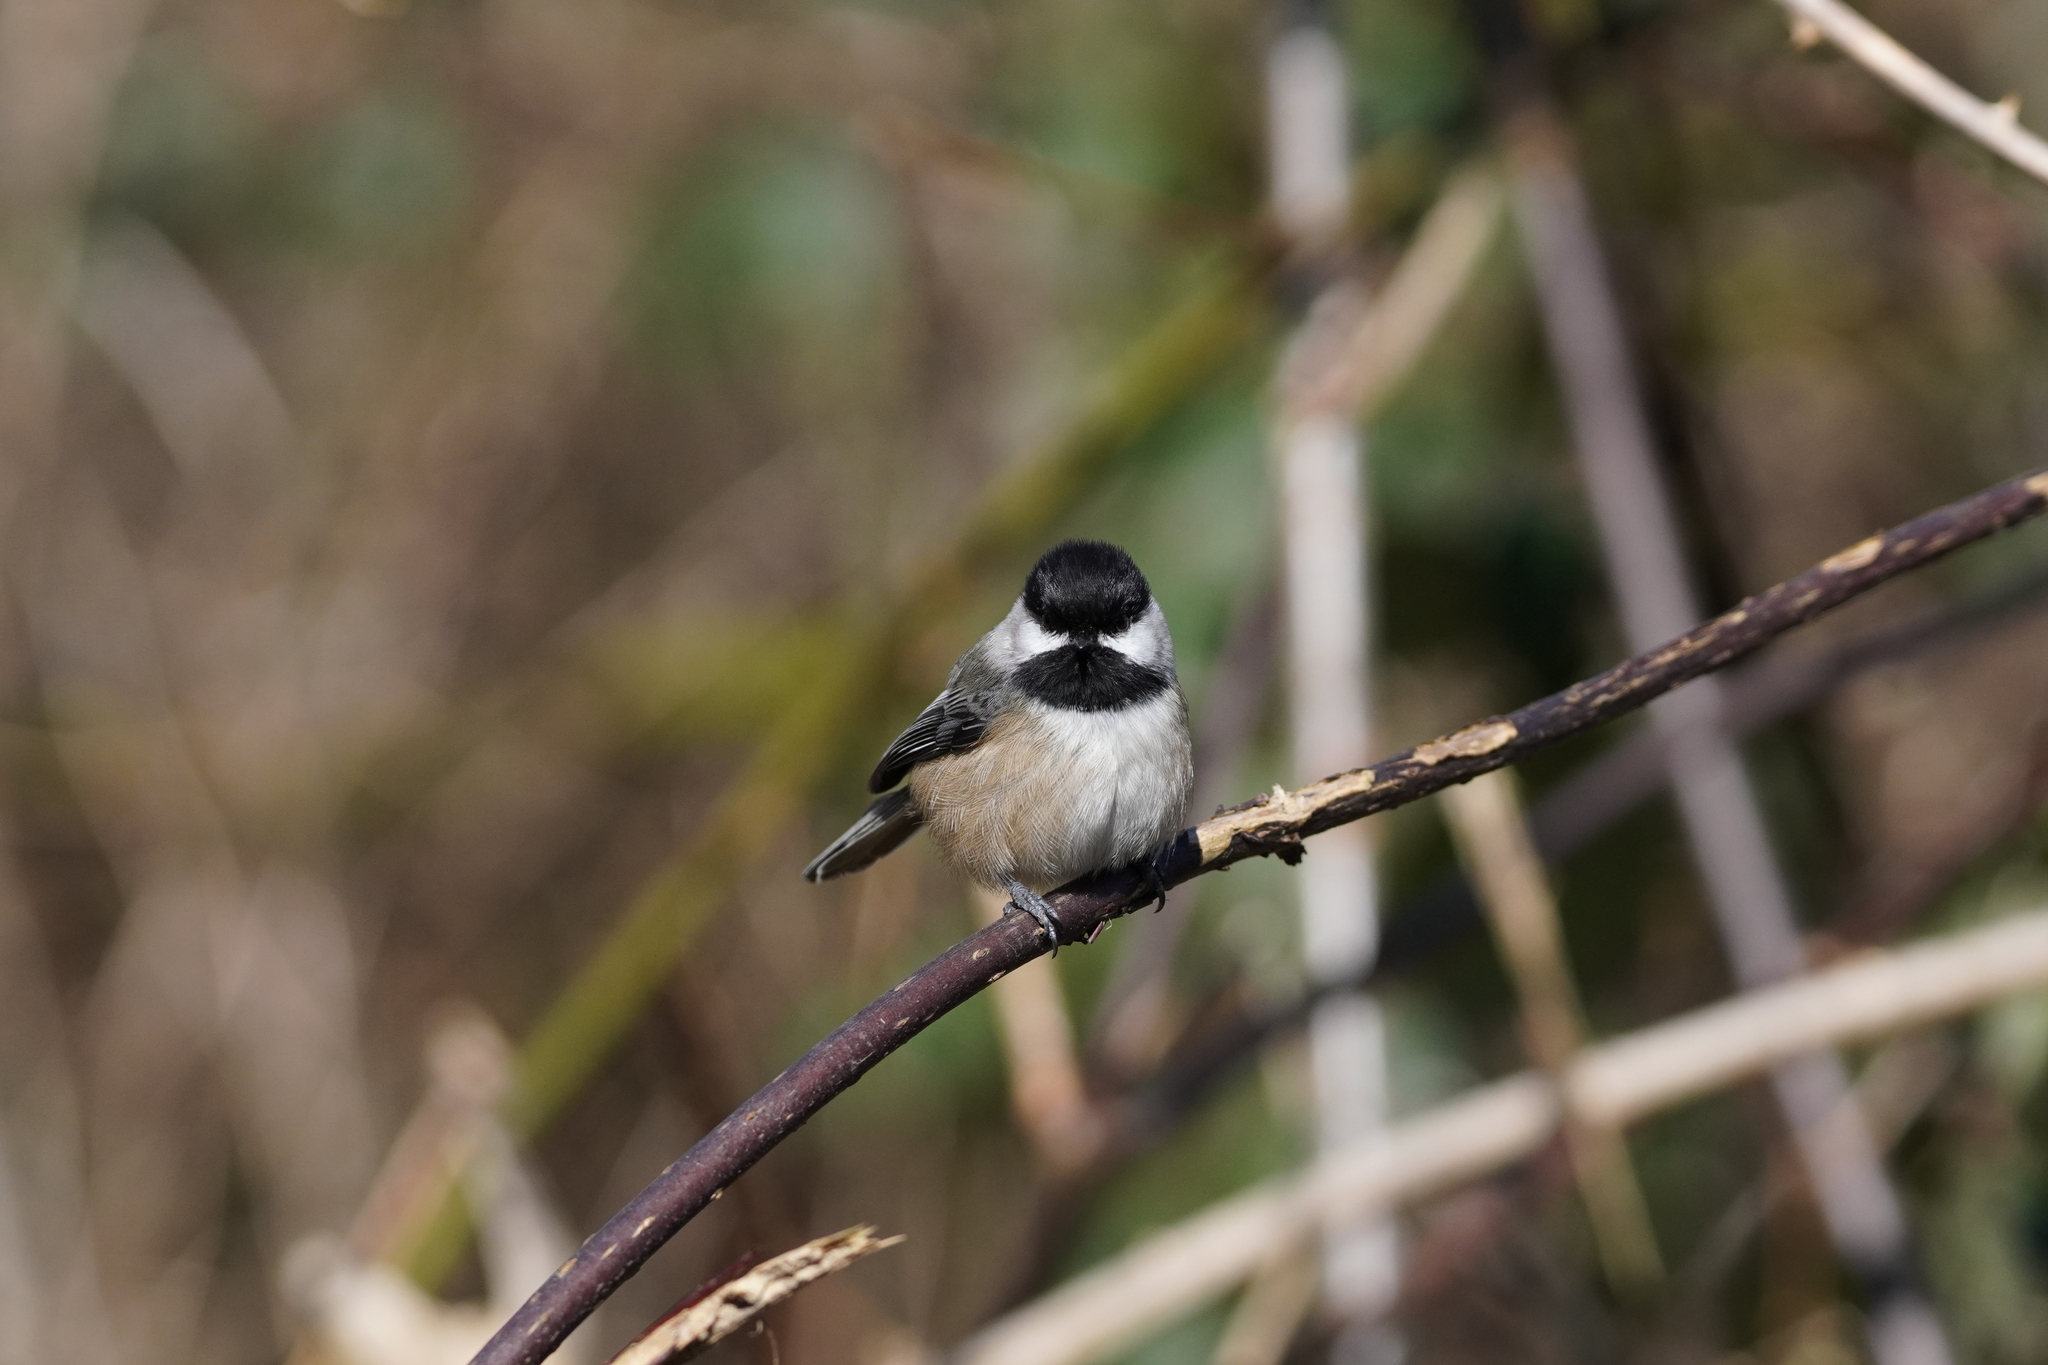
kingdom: Animalia
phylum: Chordata
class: Aves
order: Passeriformes
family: Paridae
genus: Poecile
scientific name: Poecile atricapillus
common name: Black-capped chickadee
